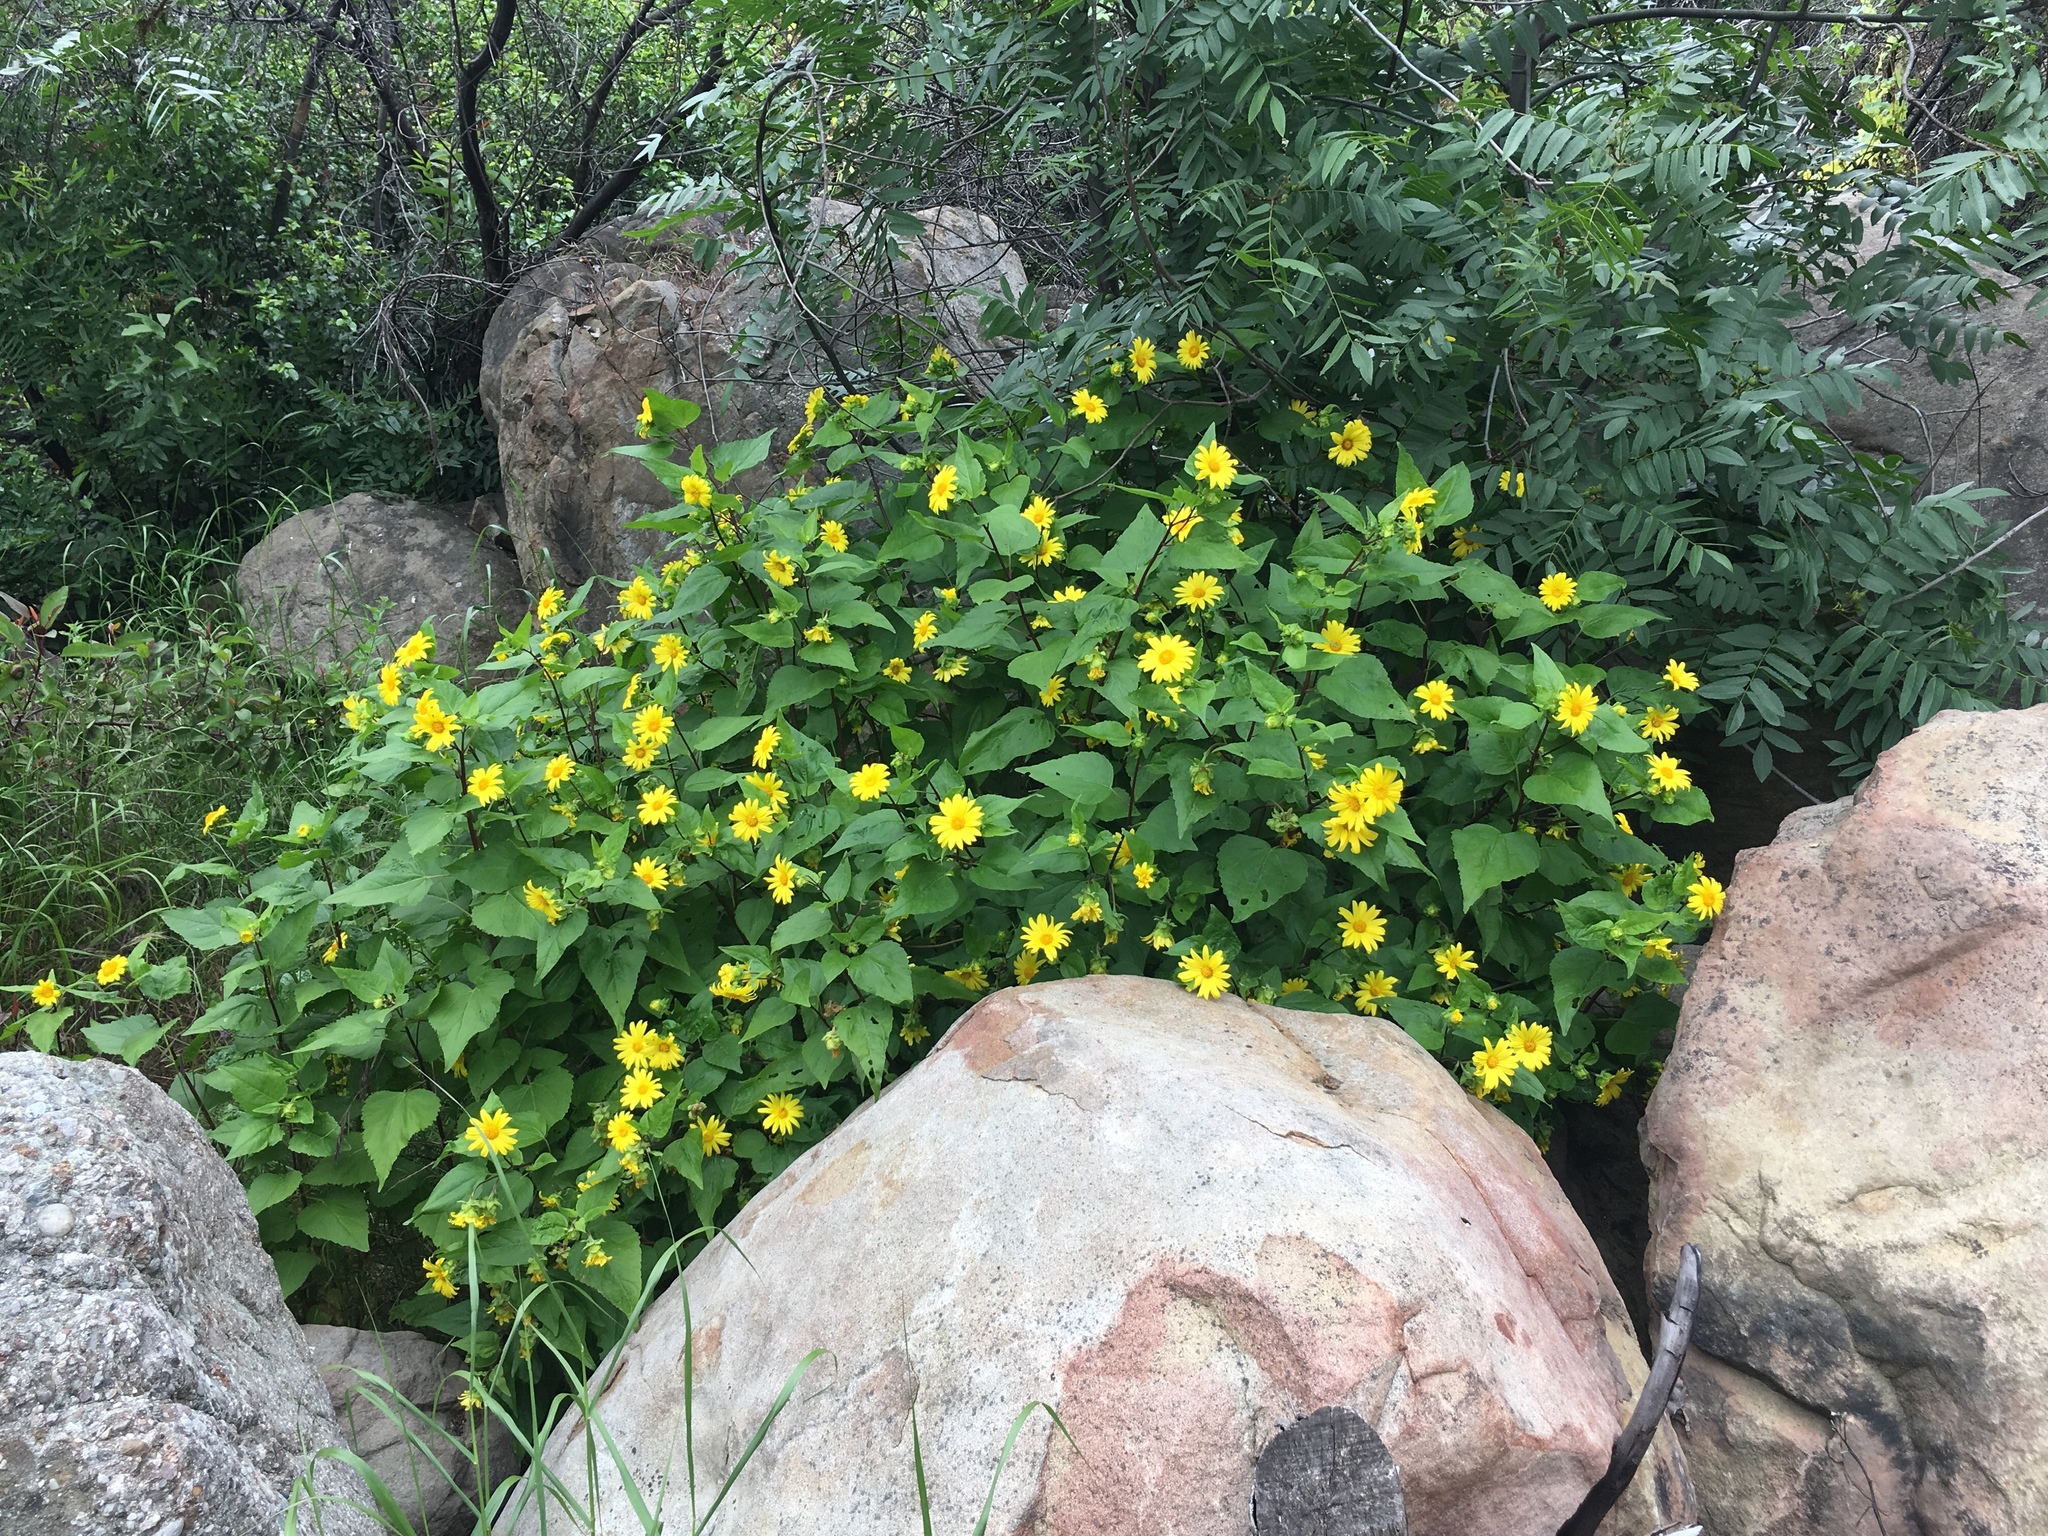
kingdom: Plantae
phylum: Tracheophyta
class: Magnoliopsida
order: Asterales
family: Asteraceae
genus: Venegasia
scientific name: Venegasia carpesioides
